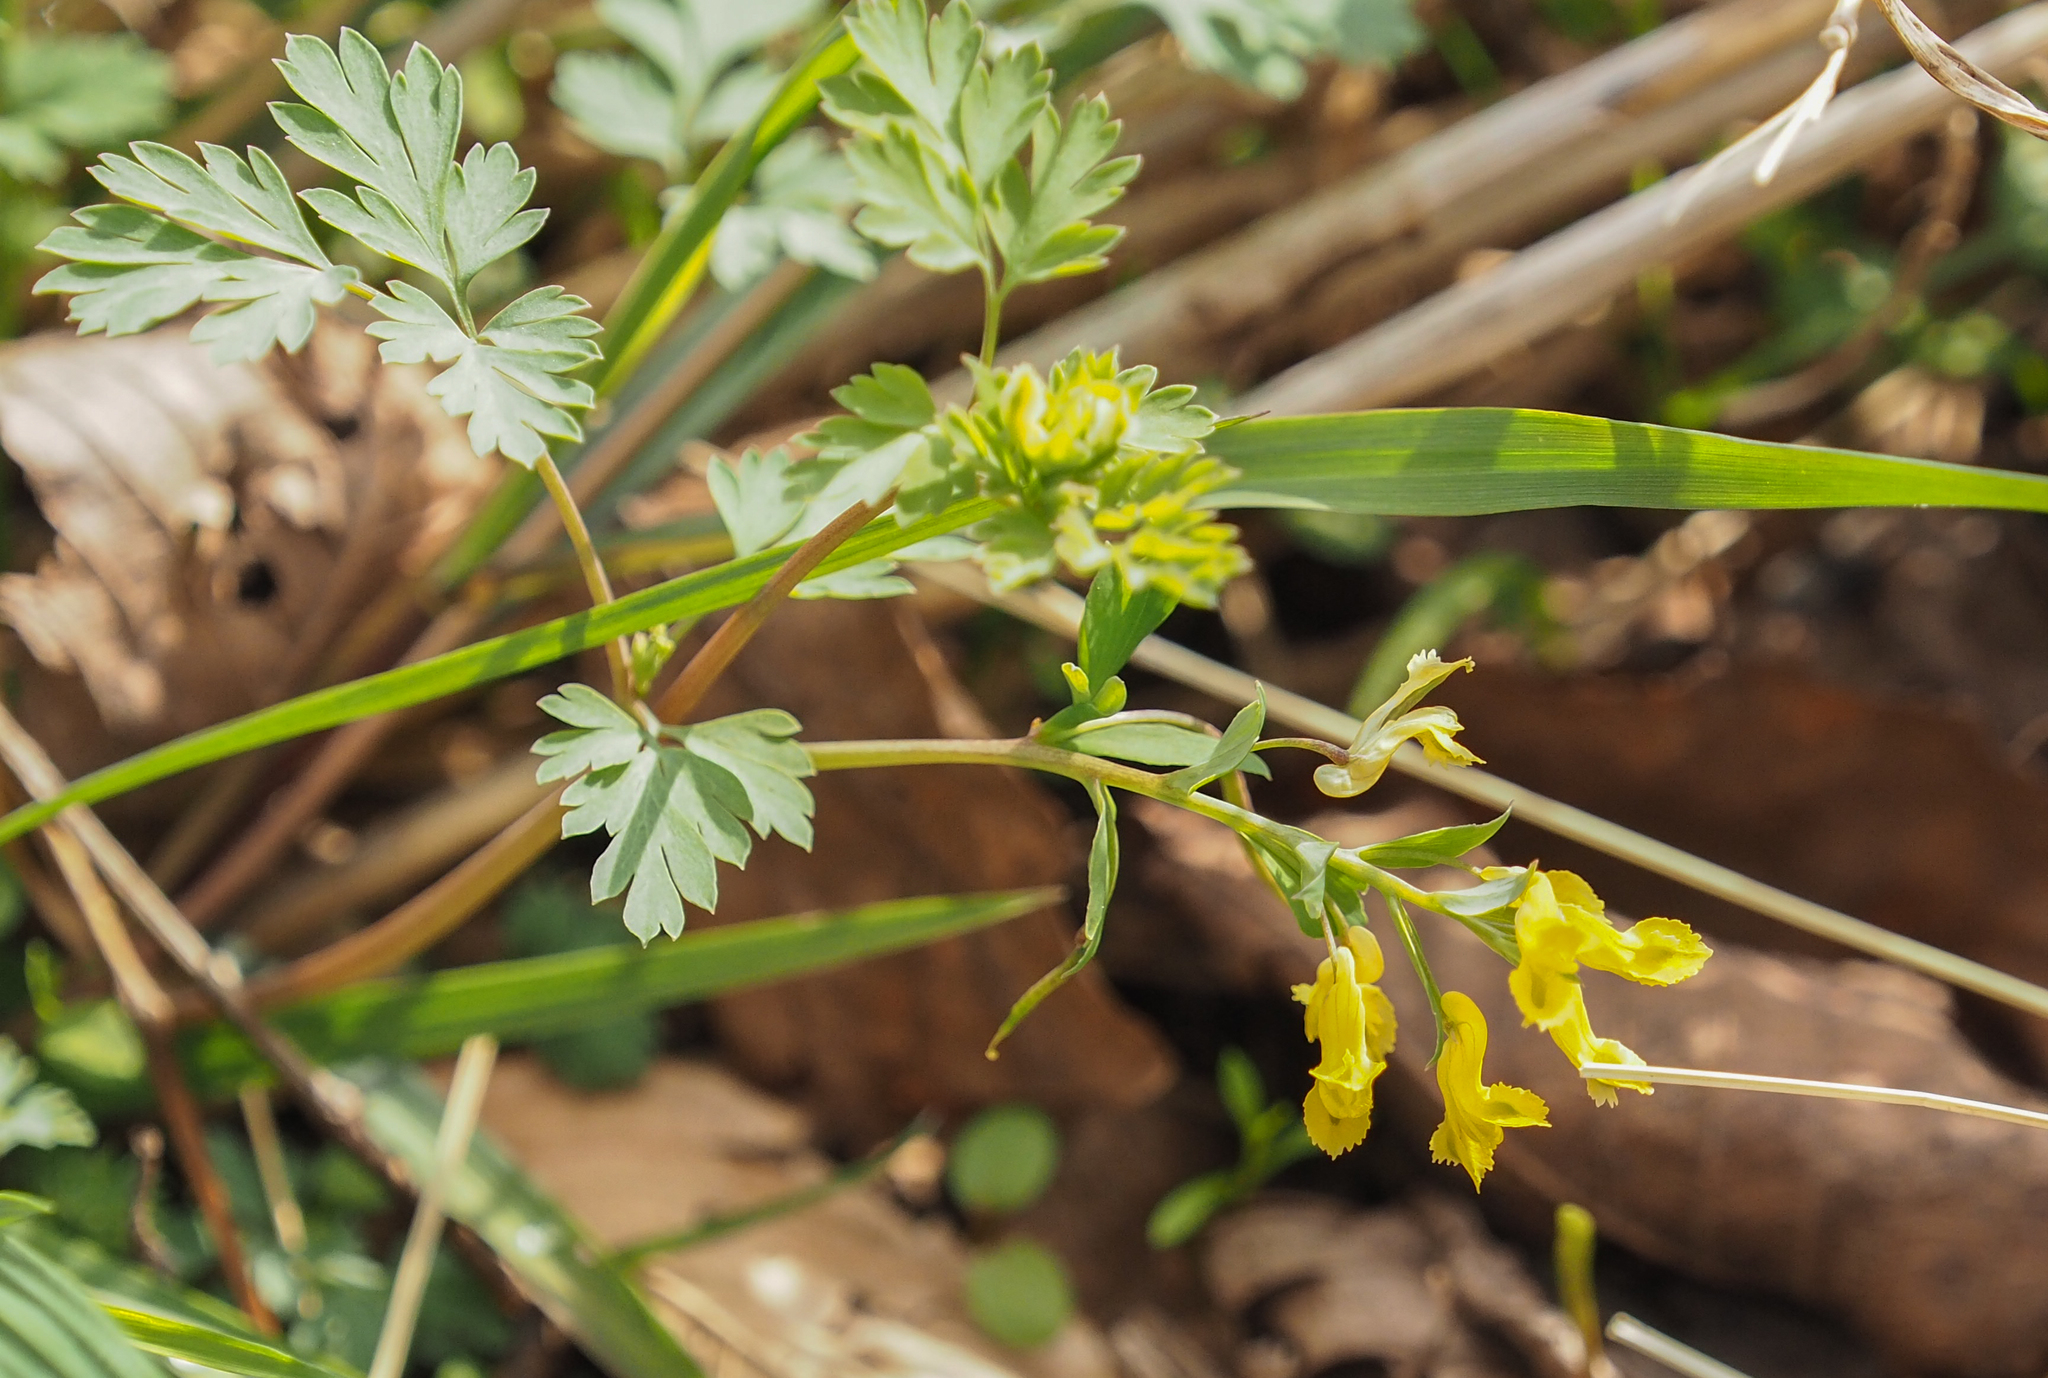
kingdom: Plantae
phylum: Tracheophyta
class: Magnoliopsida
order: Ranunculales
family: Papaveraceae
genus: Corydalis
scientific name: Corydalis flavula
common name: Yellow corydalis
